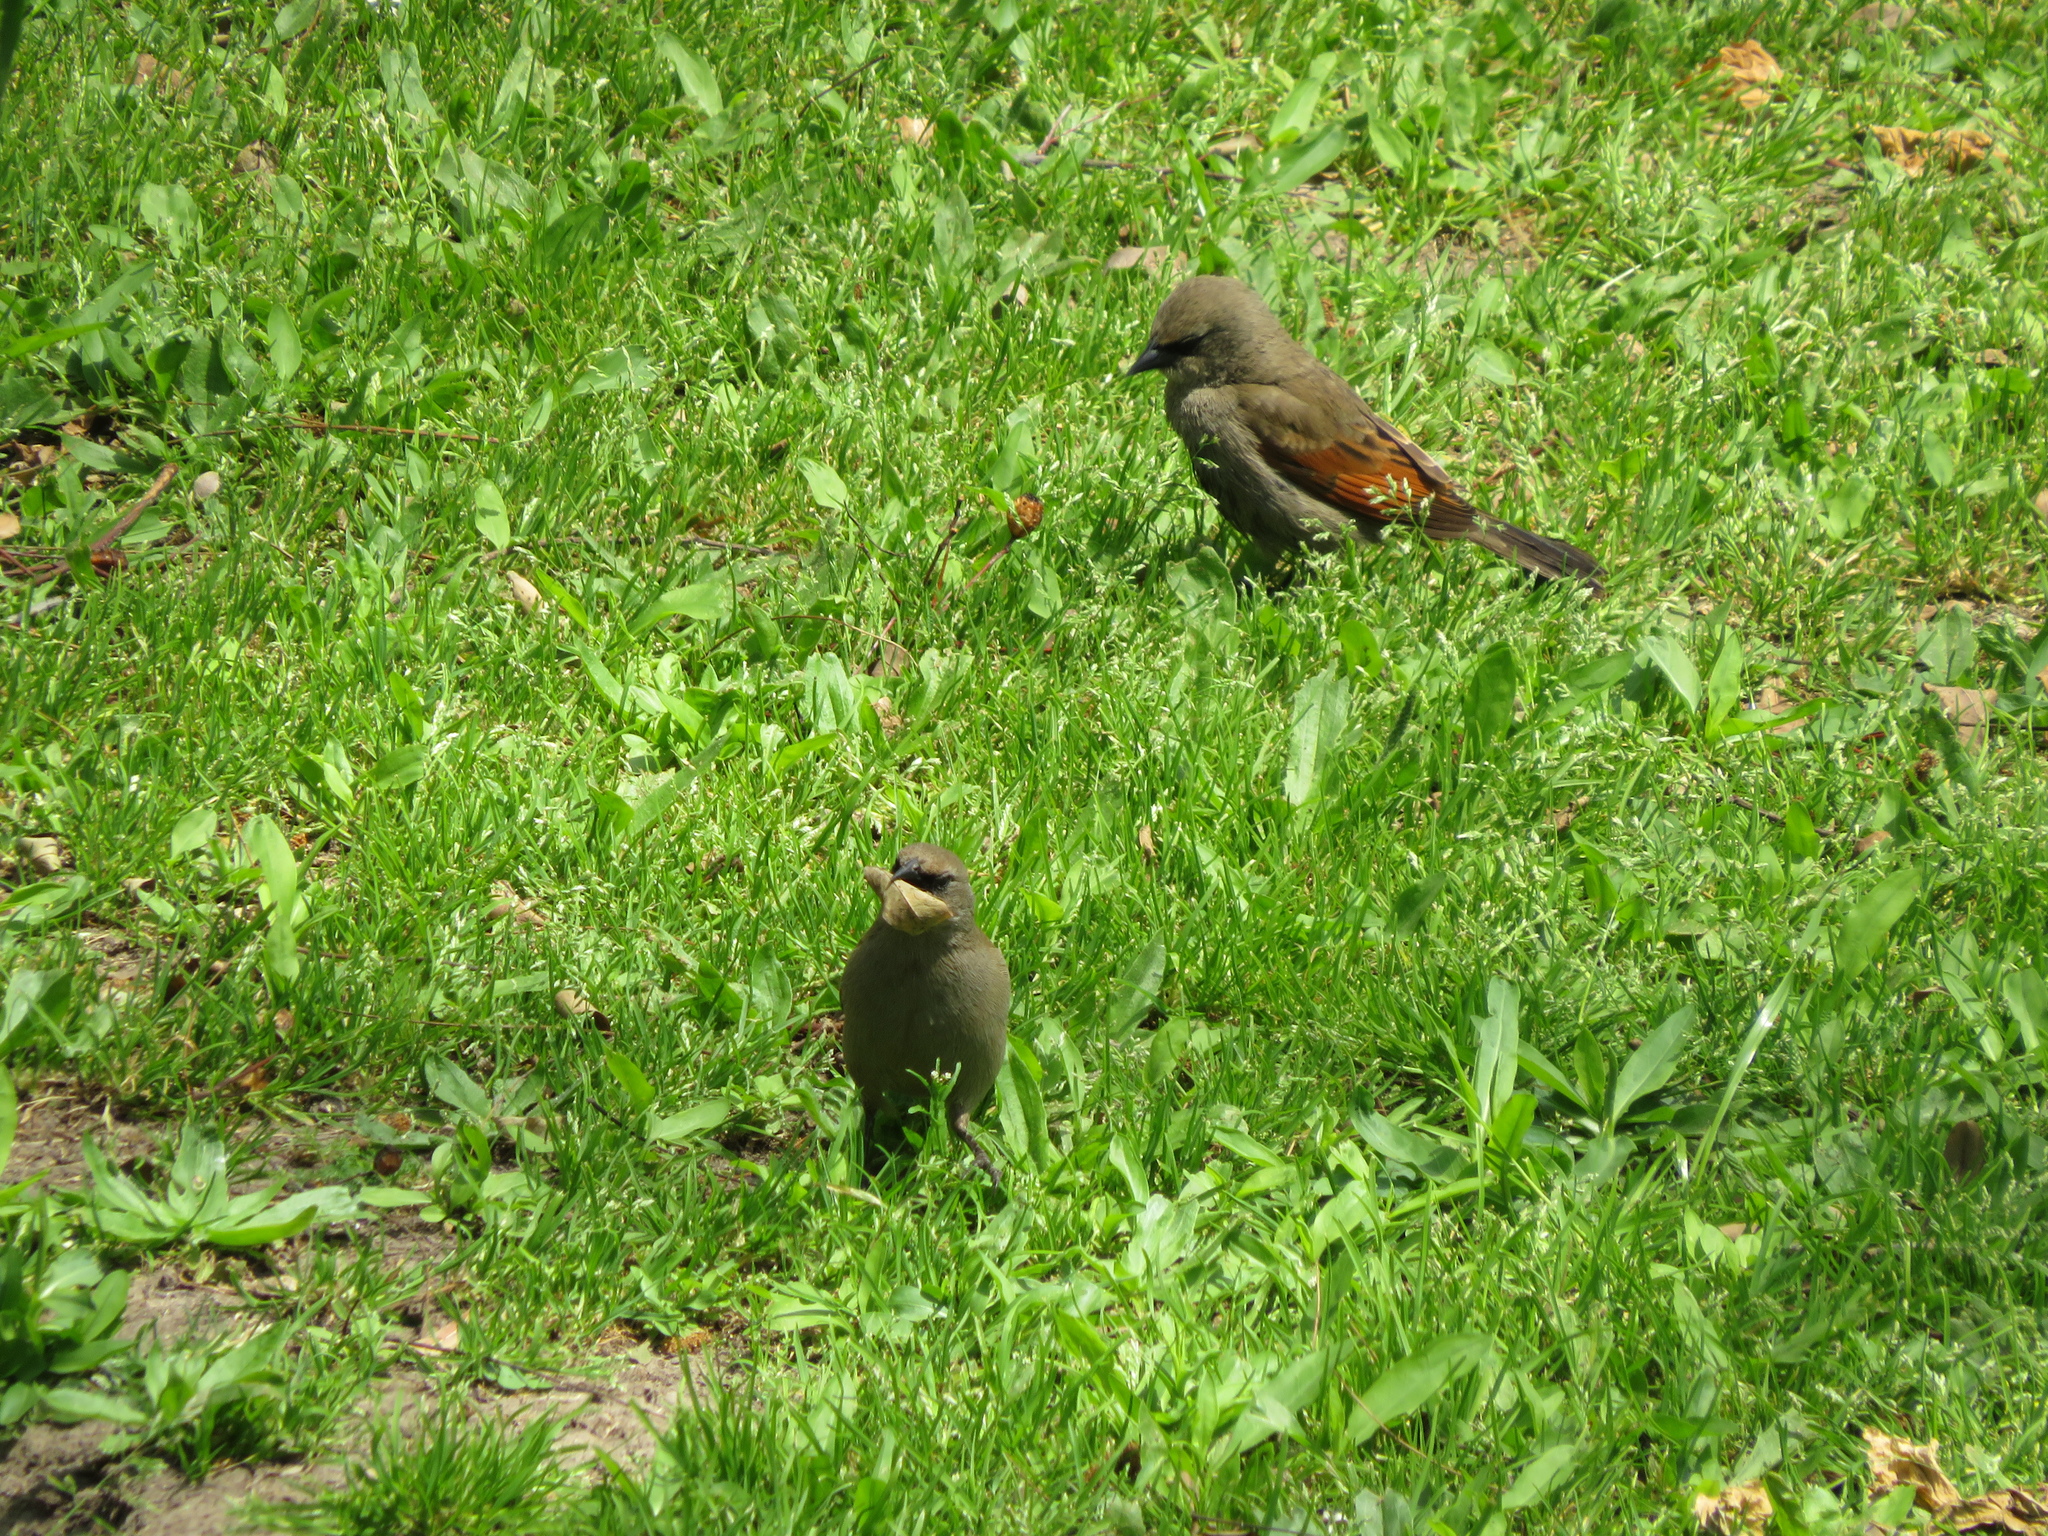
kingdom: Animalia
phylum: Chordata
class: Aves
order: Passeriformes
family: Icteridae
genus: Agelaioides
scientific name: Agelaioides badius
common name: Baywing
